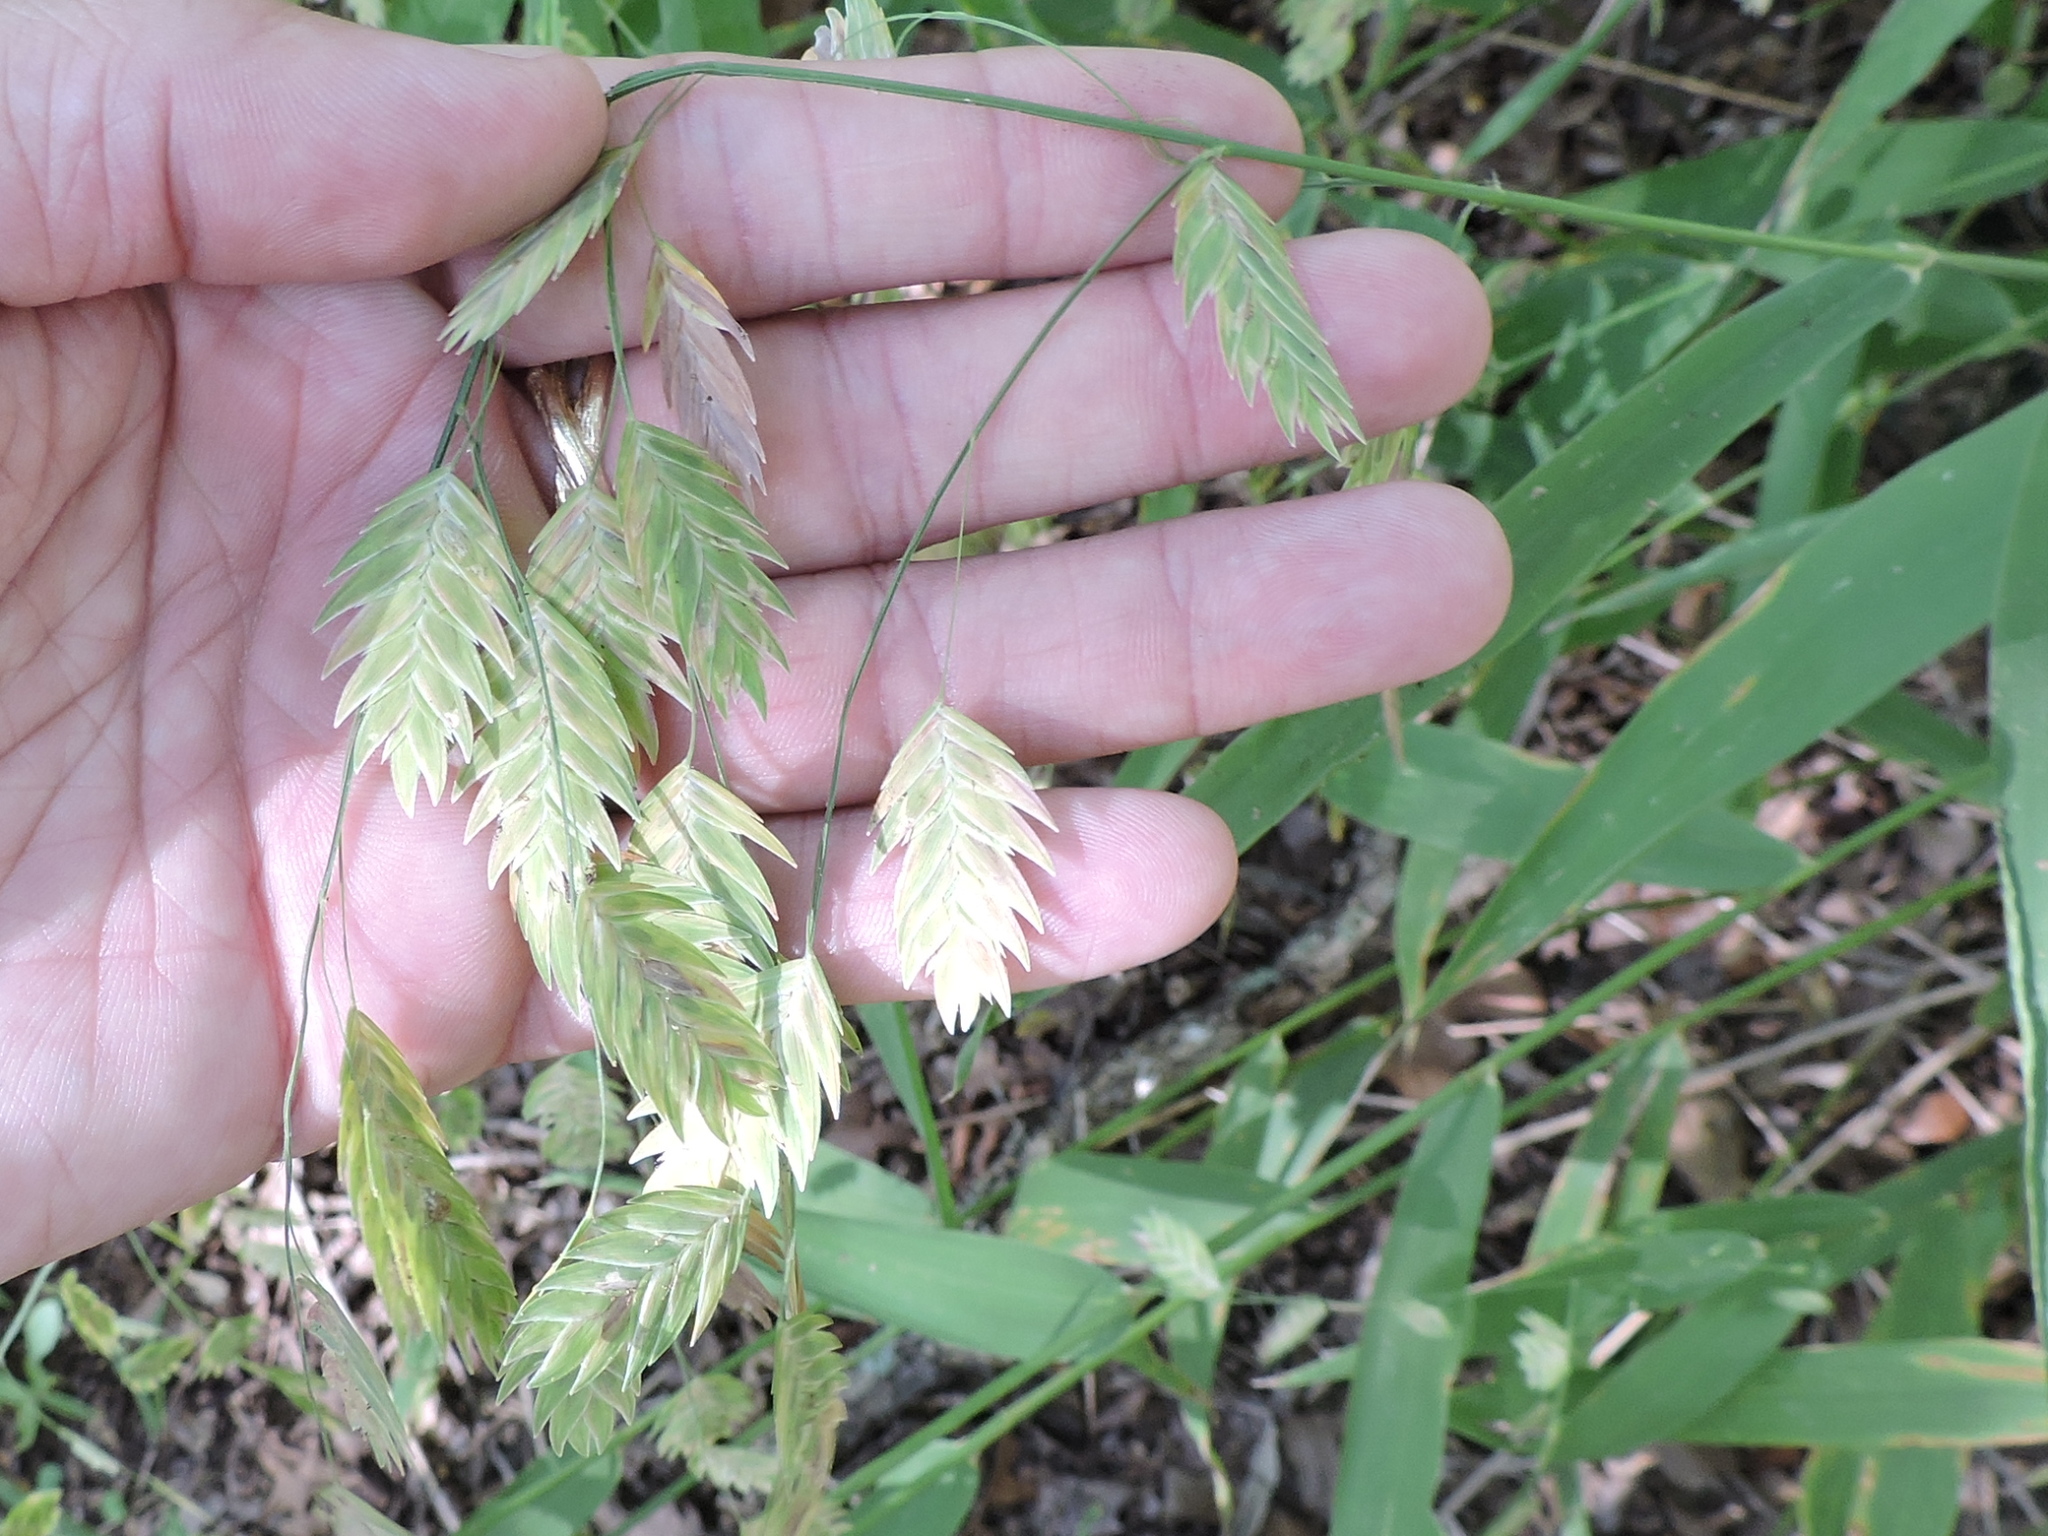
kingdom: Plantae
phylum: Tracheophyta
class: Liliopsida
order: Poales
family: Poaceae
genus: Chasmanthium
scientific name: Chasmanthium latifolium
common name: Broad-leaved chasmanthium
